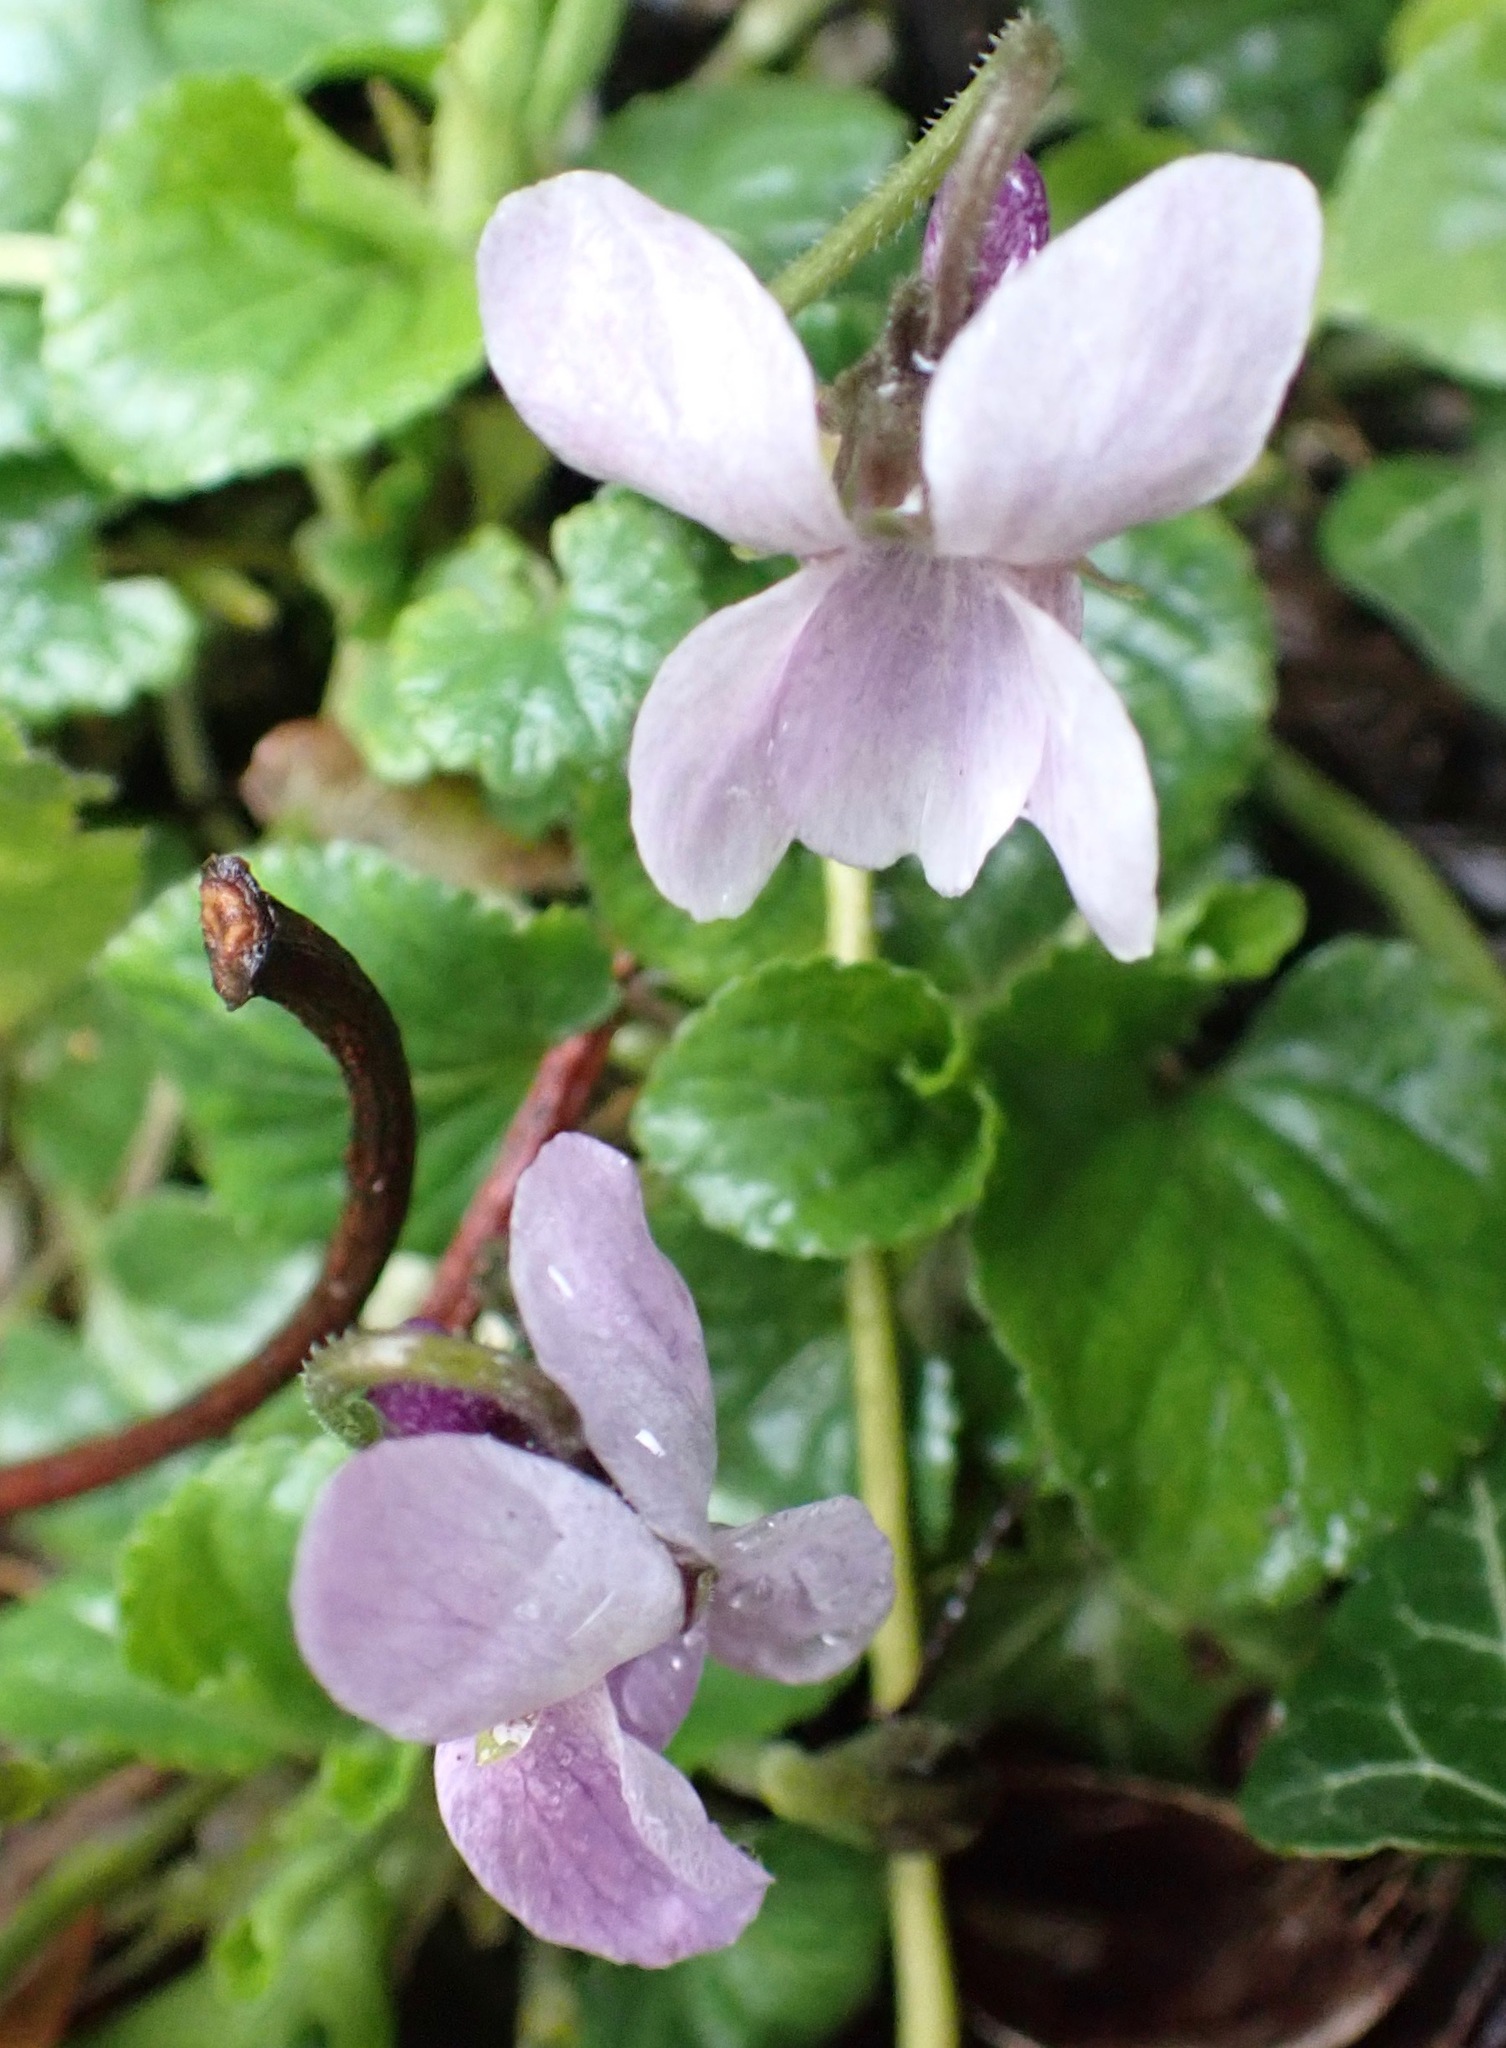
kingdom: Plantae
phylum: Tracheophyta
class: Magnoliopsida
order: Malpighiales
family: Violaceae
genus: Viola
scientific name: Viola odorata
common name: Sweet violet
